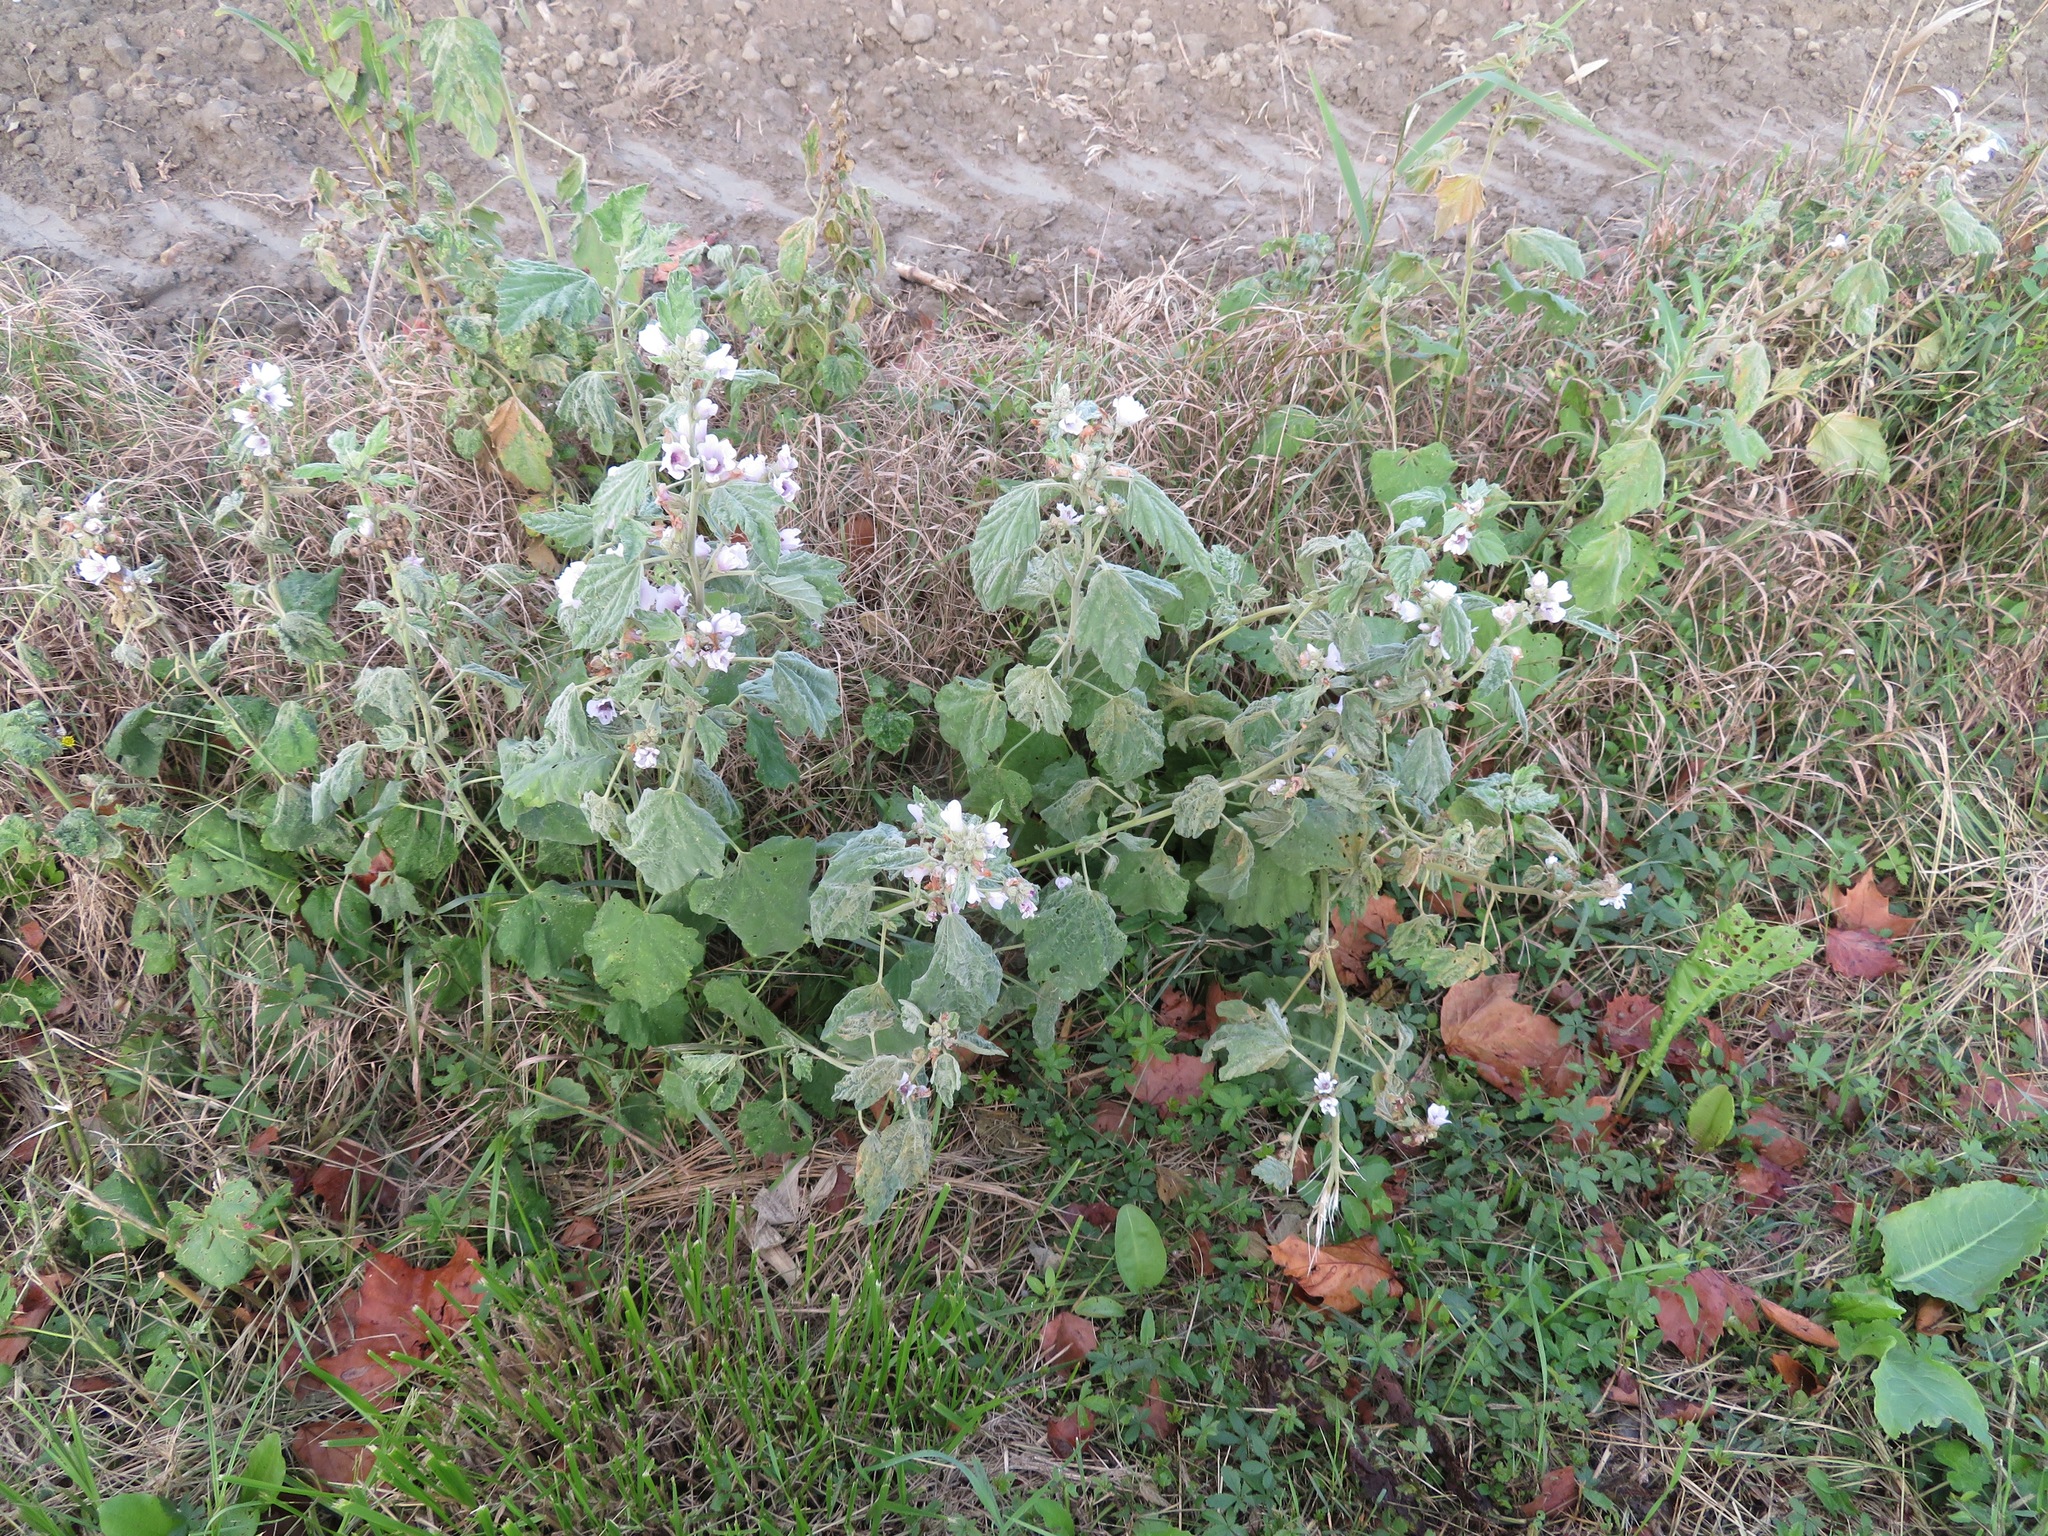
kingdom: Plantae
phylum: Tracheophyta
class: Magnoliopsida
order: Malvales
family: Malvaceae
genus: Althaea
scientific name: Althaea officinalis
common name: Marsh-mallow
